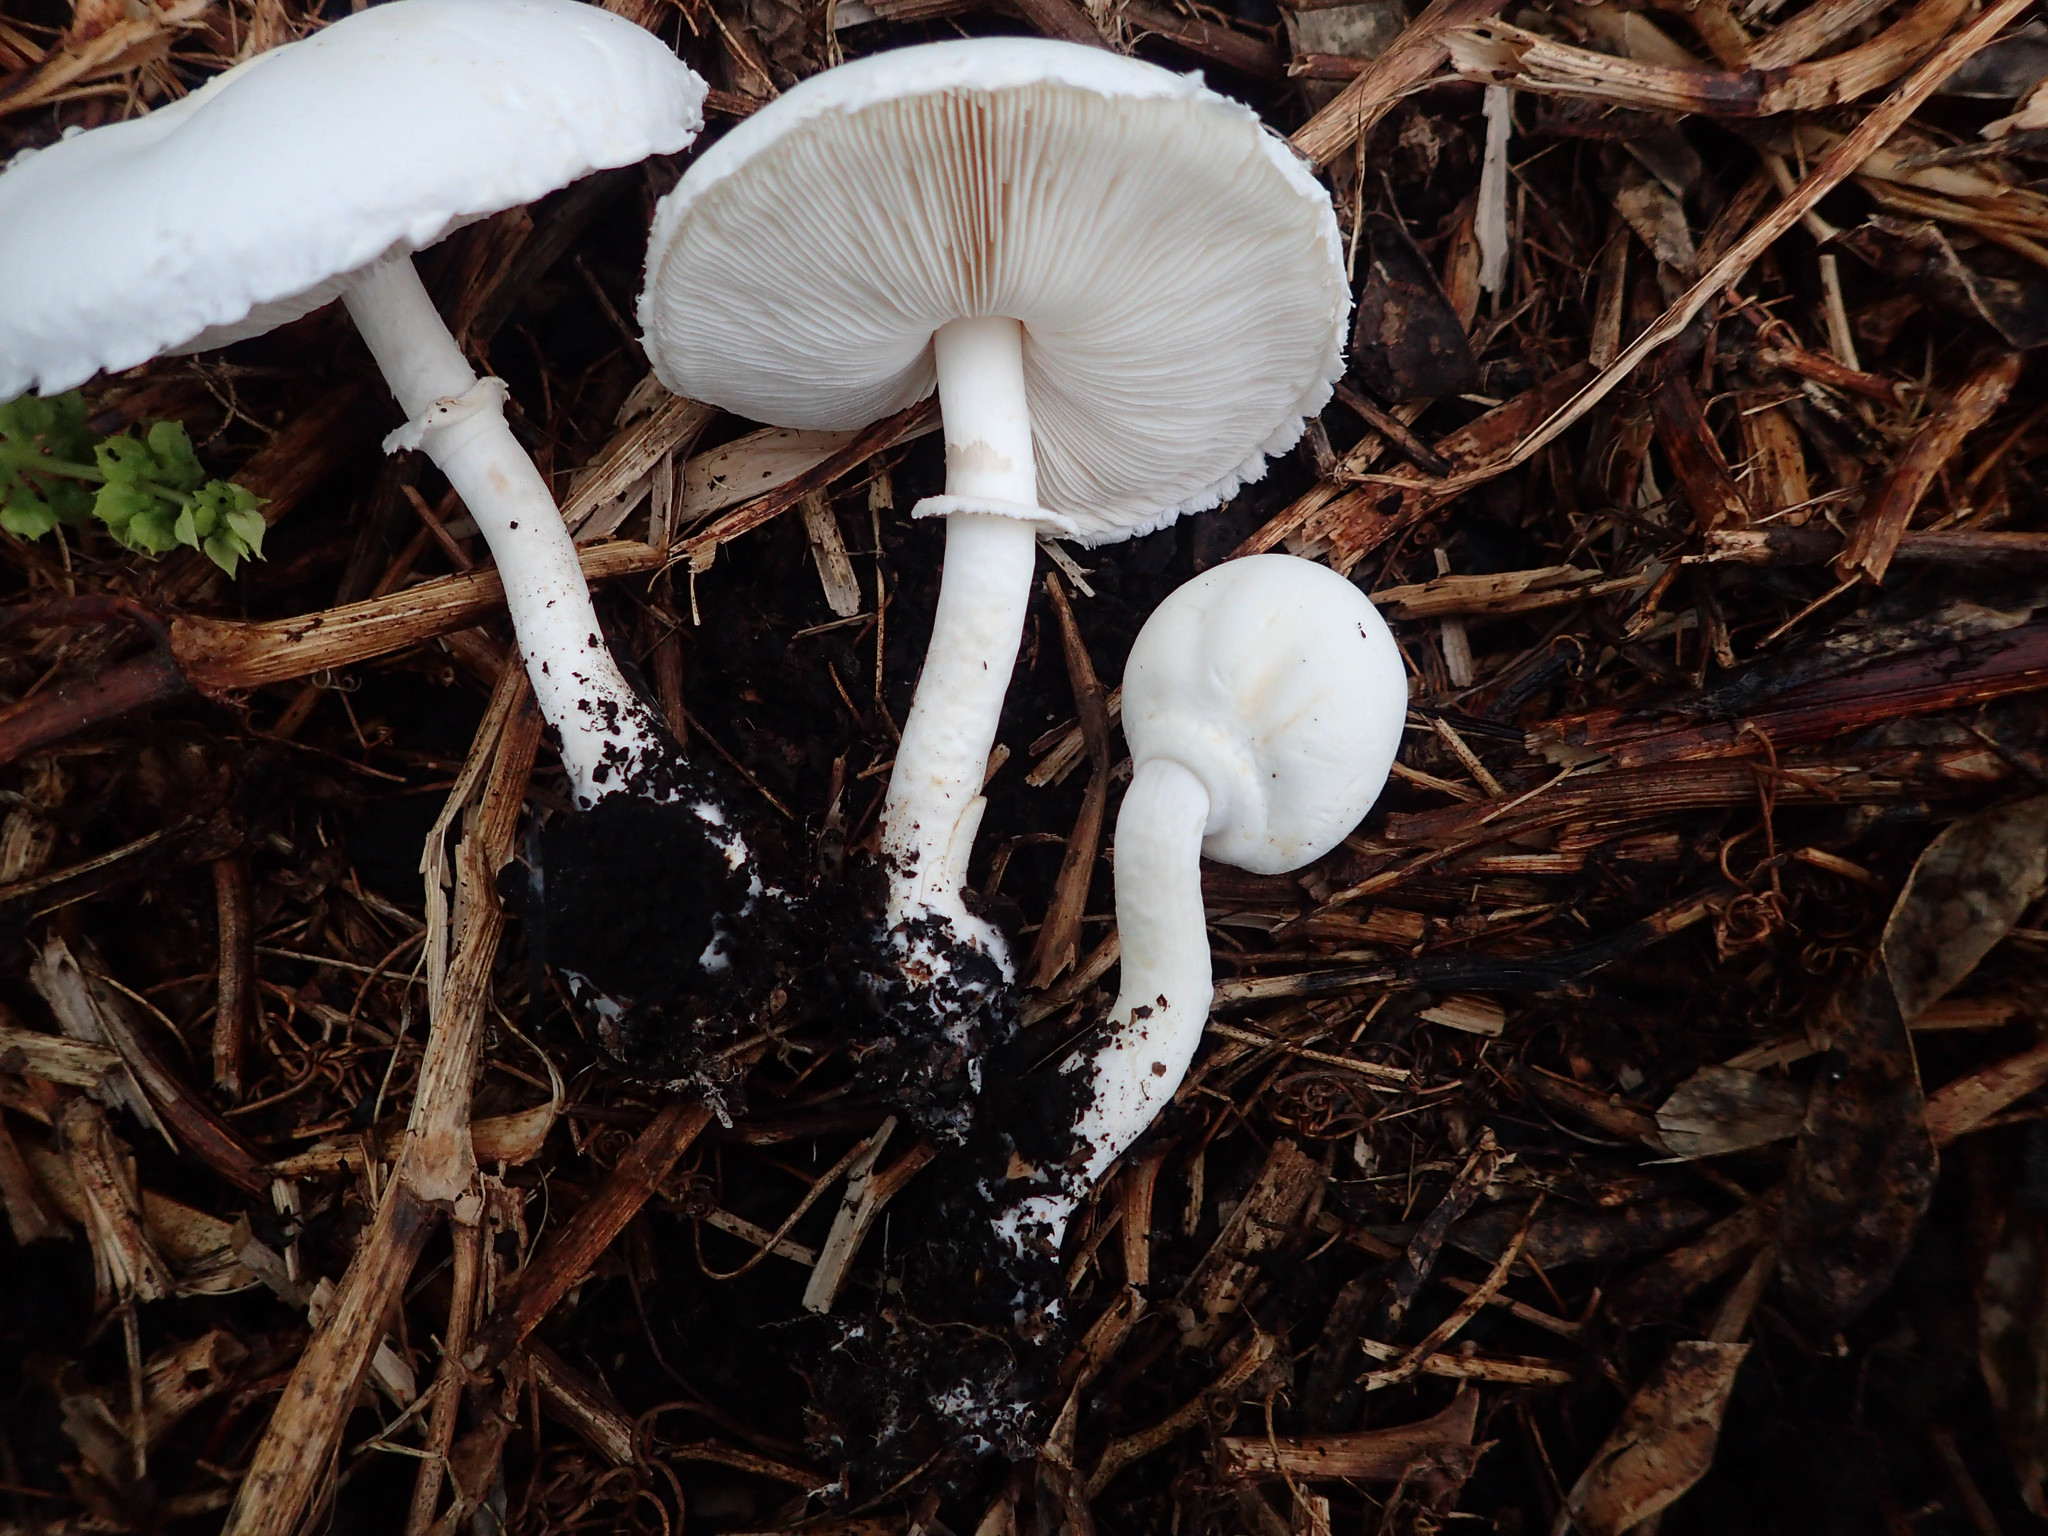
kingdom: Fungi
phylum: Basidiomycota
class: Agaricomycetes
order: Agaricales
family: Agaricaceae
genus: Leucoagaricus
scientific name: Leucoagaricus leucothites
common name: White dapperling
